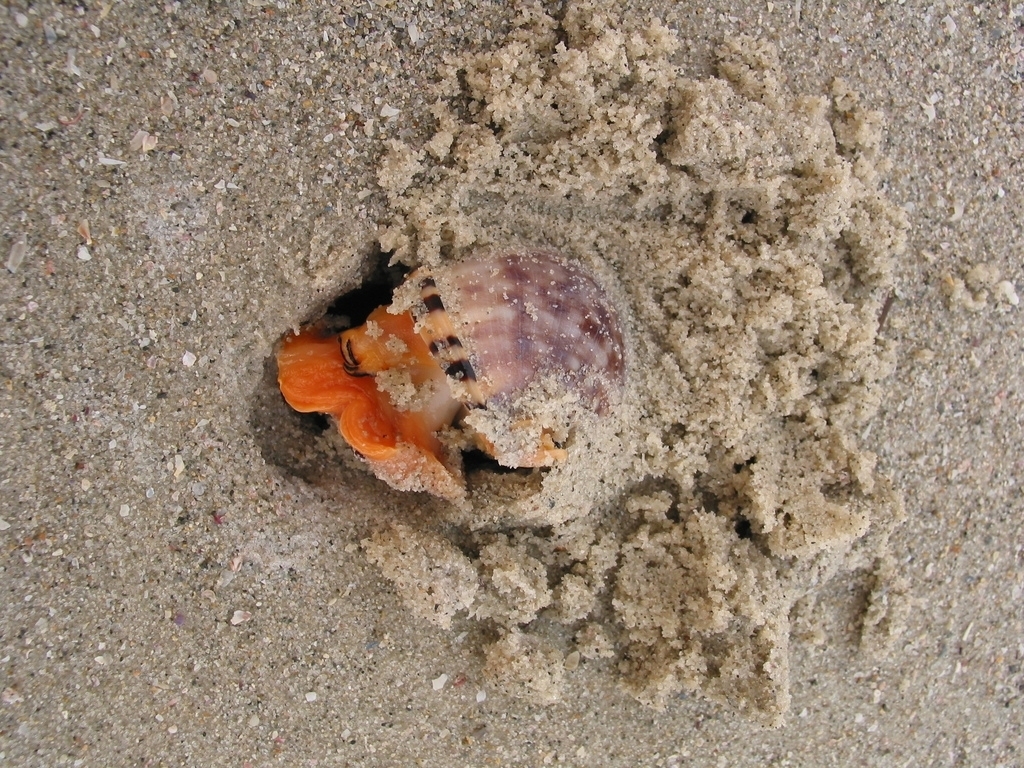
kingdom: Animalia
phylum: Mollusca
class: Gastropoda
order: Littorinimorpha
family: Cassidae
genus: Semicassis
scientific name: Semicassis labiata
